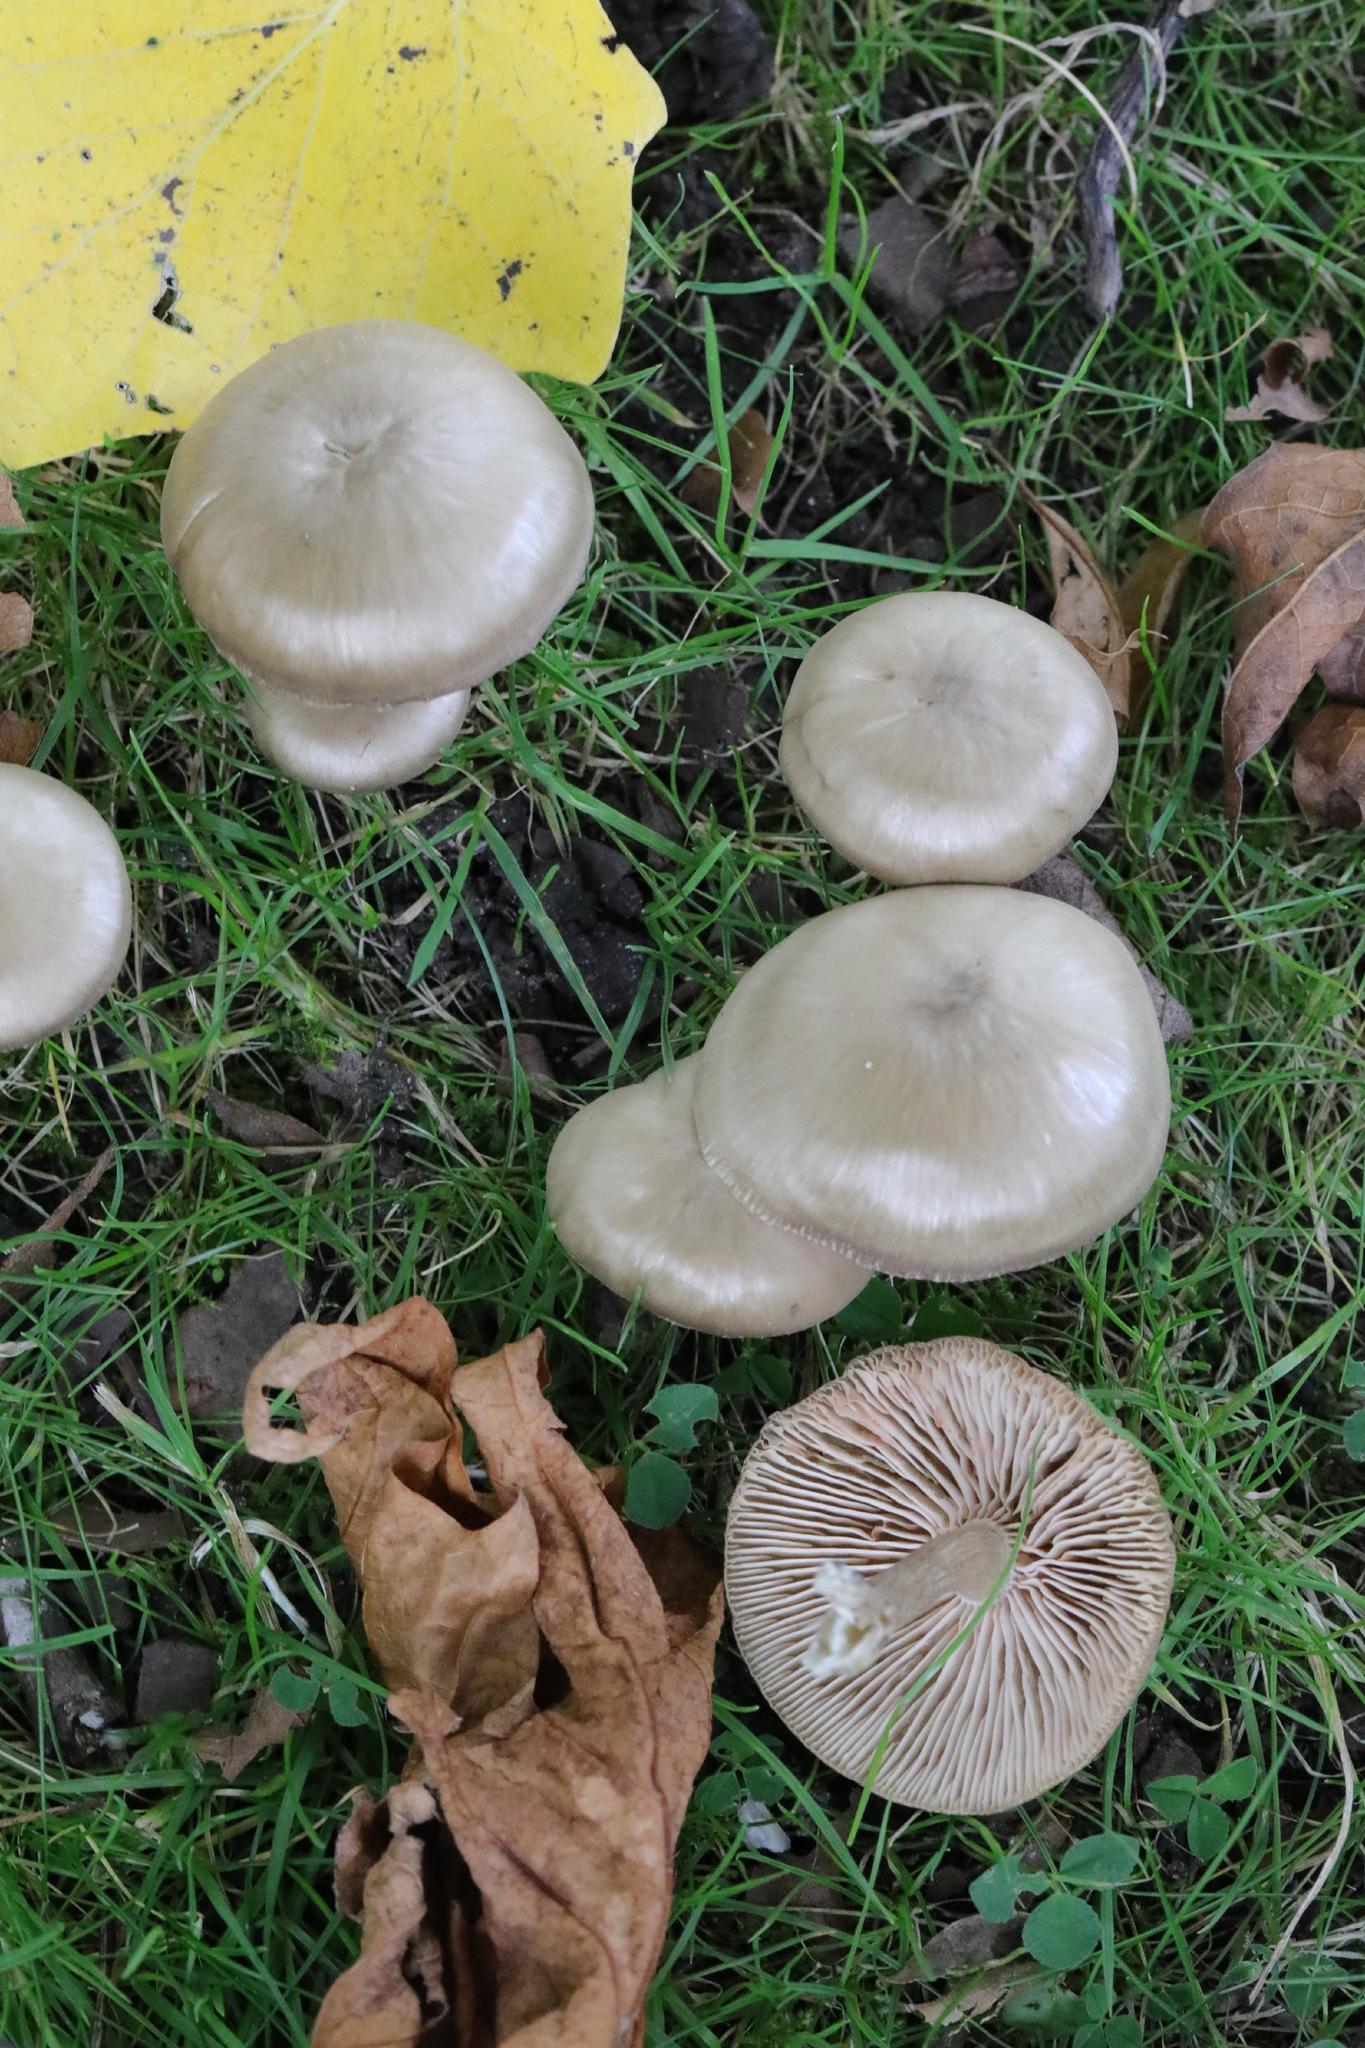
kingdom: Fungi
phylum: Basidiomycota
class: Agaricomycetes
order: Agaricales
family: Entolomataceae
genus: Entoloma
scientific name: Entoloma
